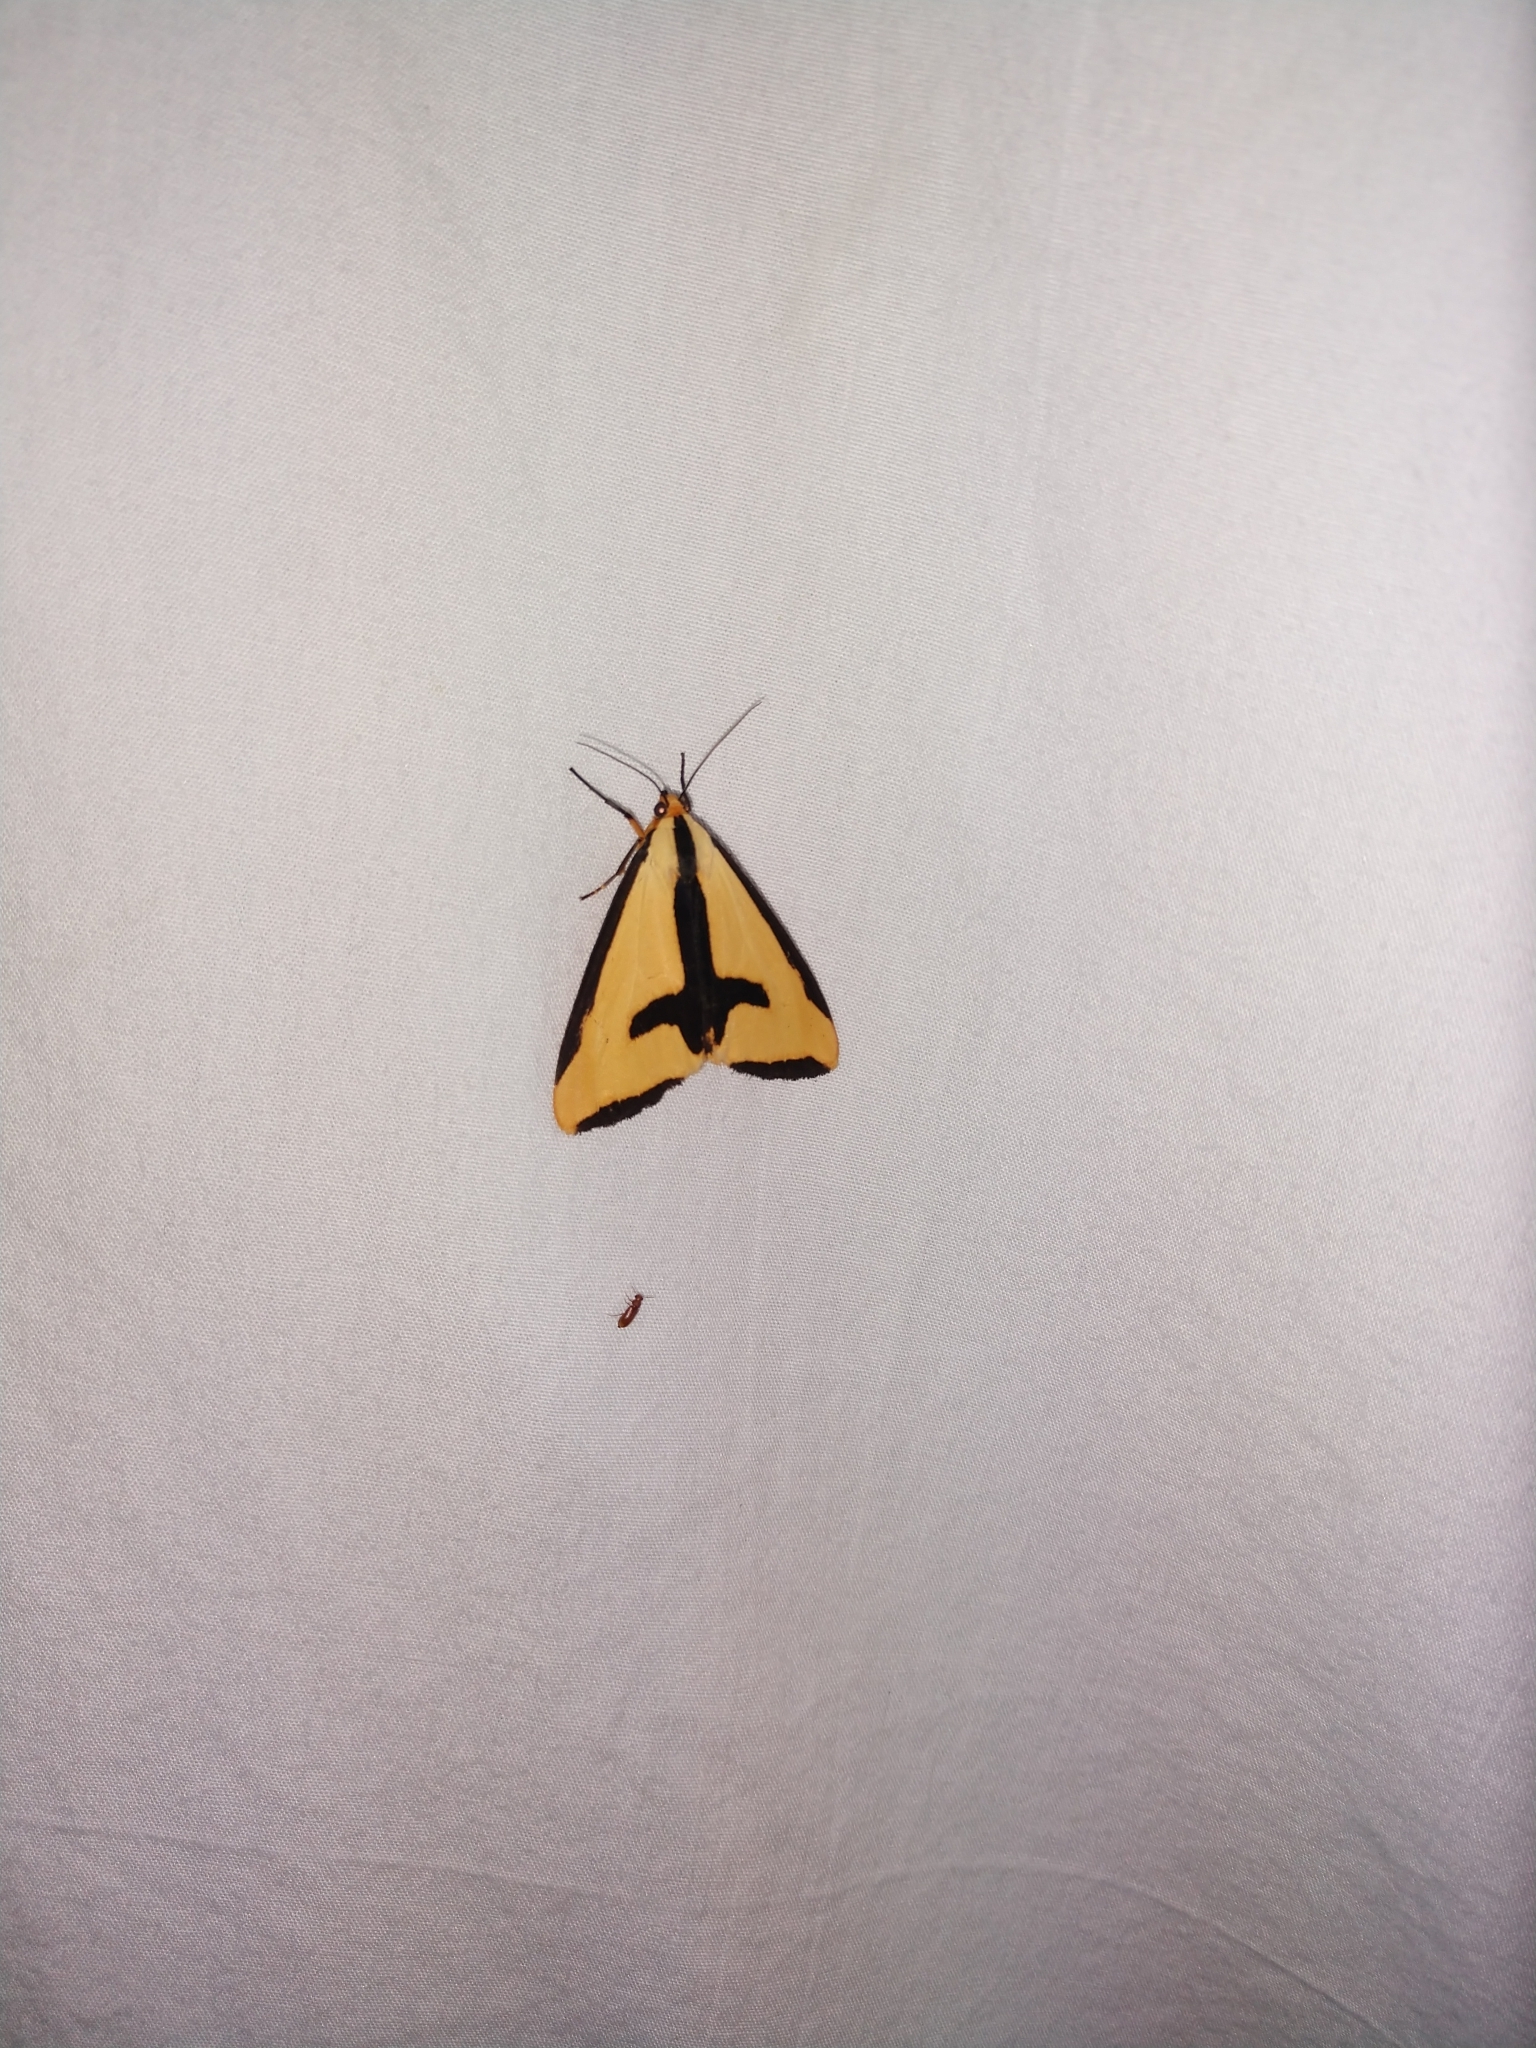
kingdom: Animalia
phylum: Arthropoda
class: Insecta
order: Lepidoptera
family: Erebidae
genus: Haploa
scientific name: Haploa clymene
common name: Clymene moth
